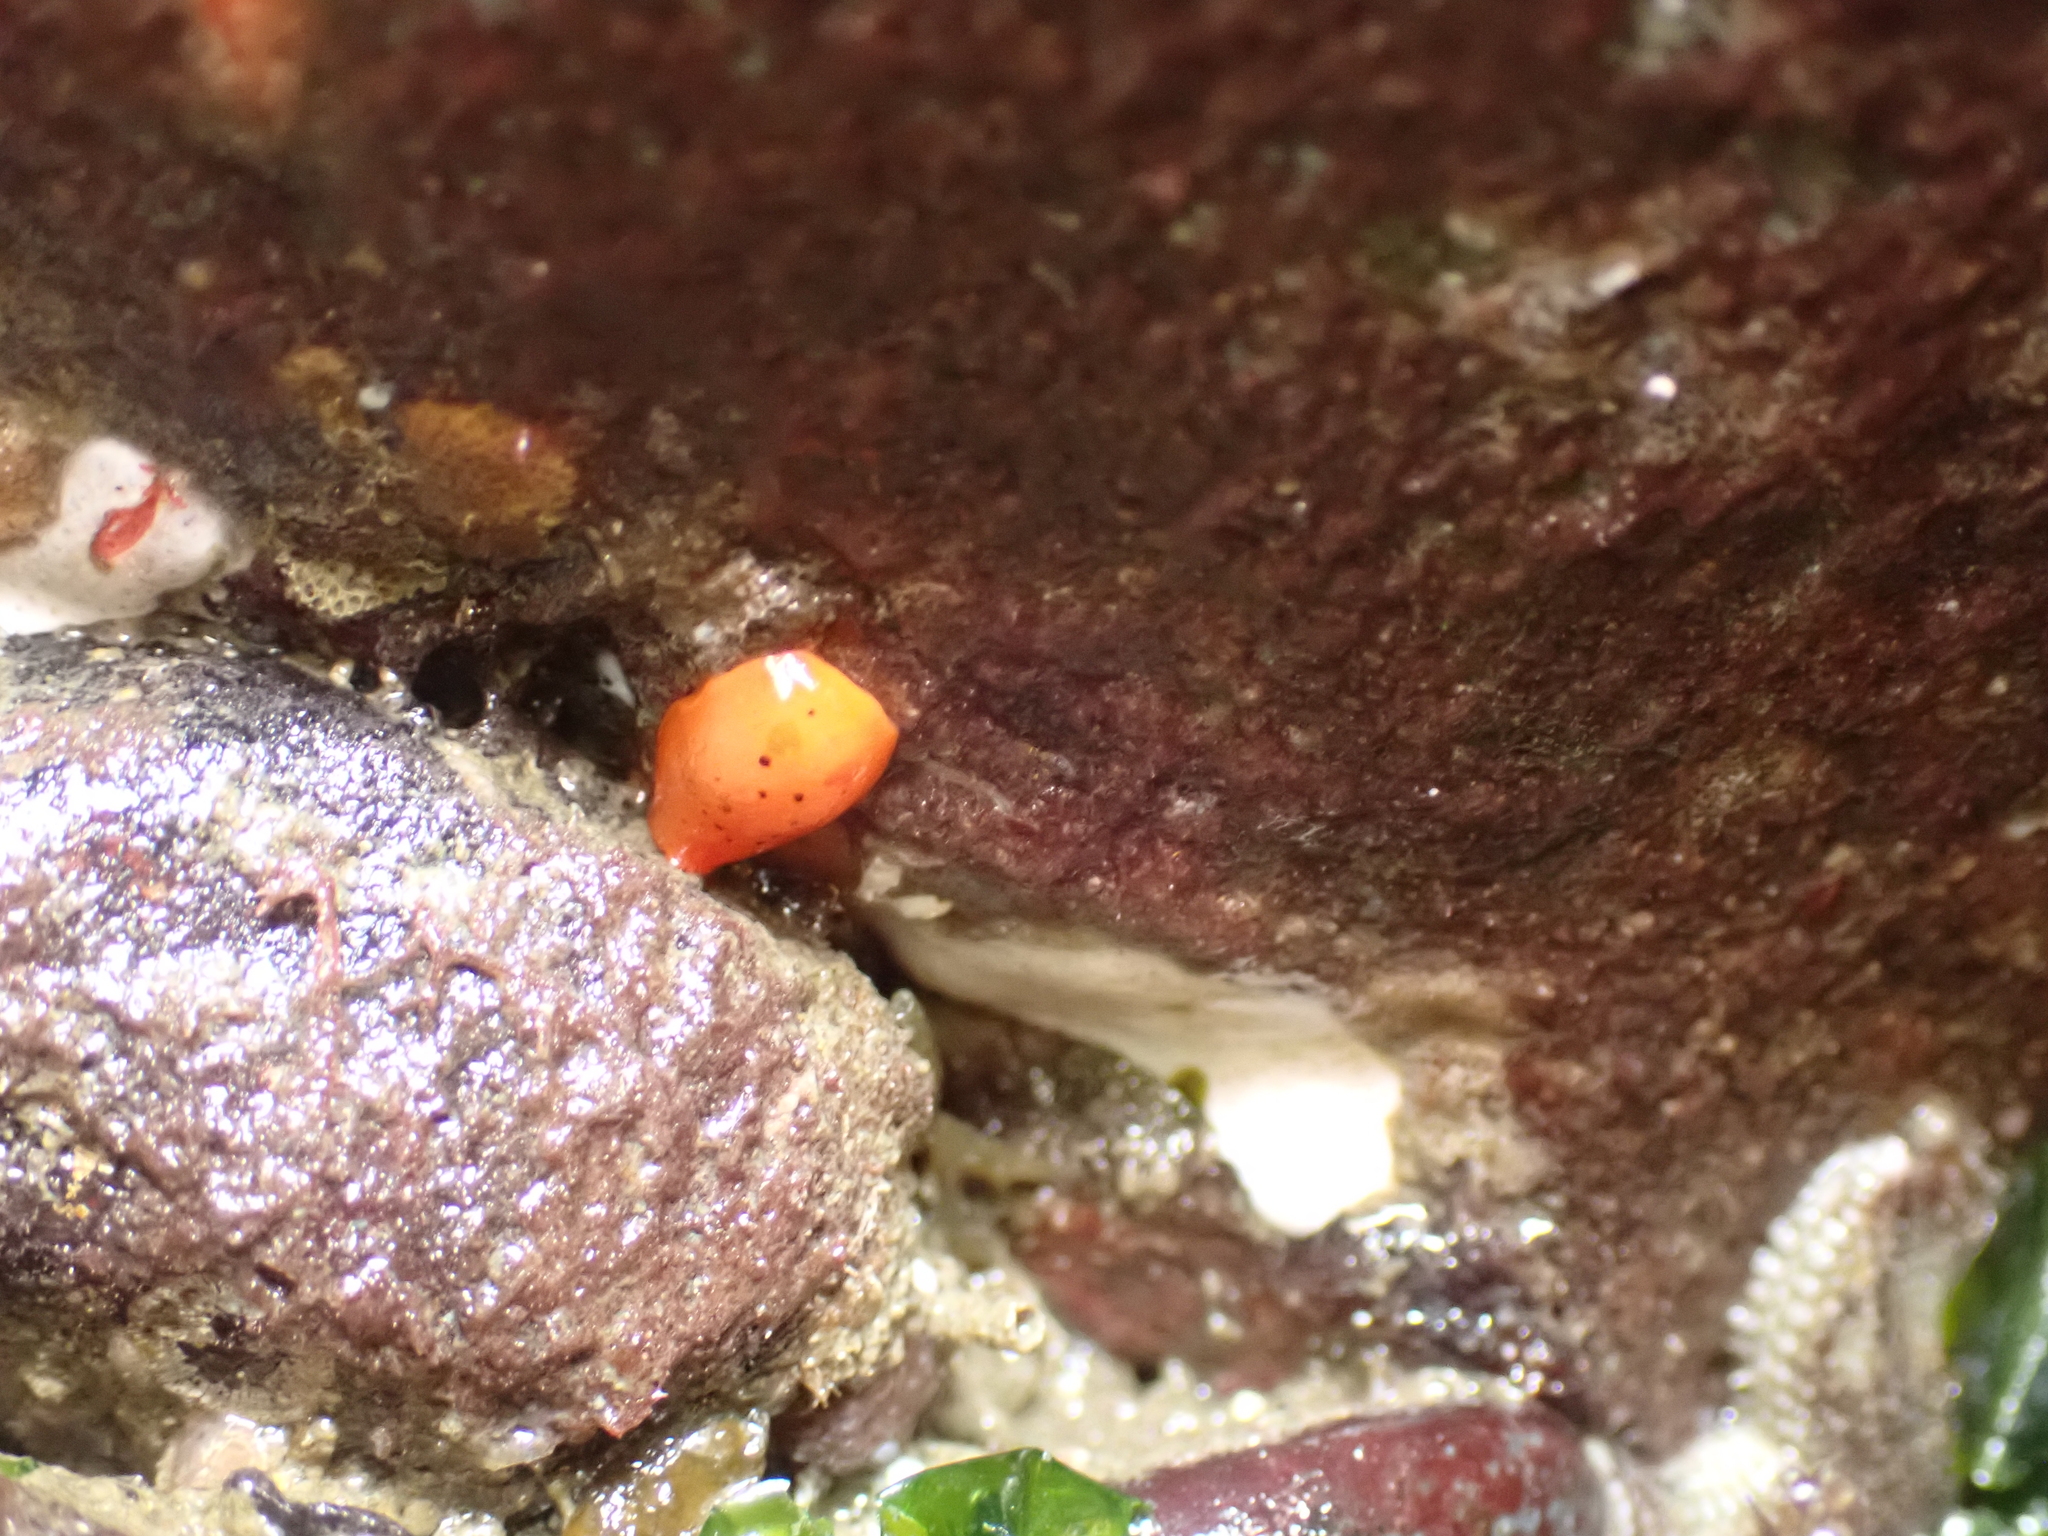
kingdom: Animalia
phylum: Mollusca
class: Gastropoda
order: Nudibranchia
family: Discodorididae
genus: Rostanga
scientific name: Rostanga pulchra
